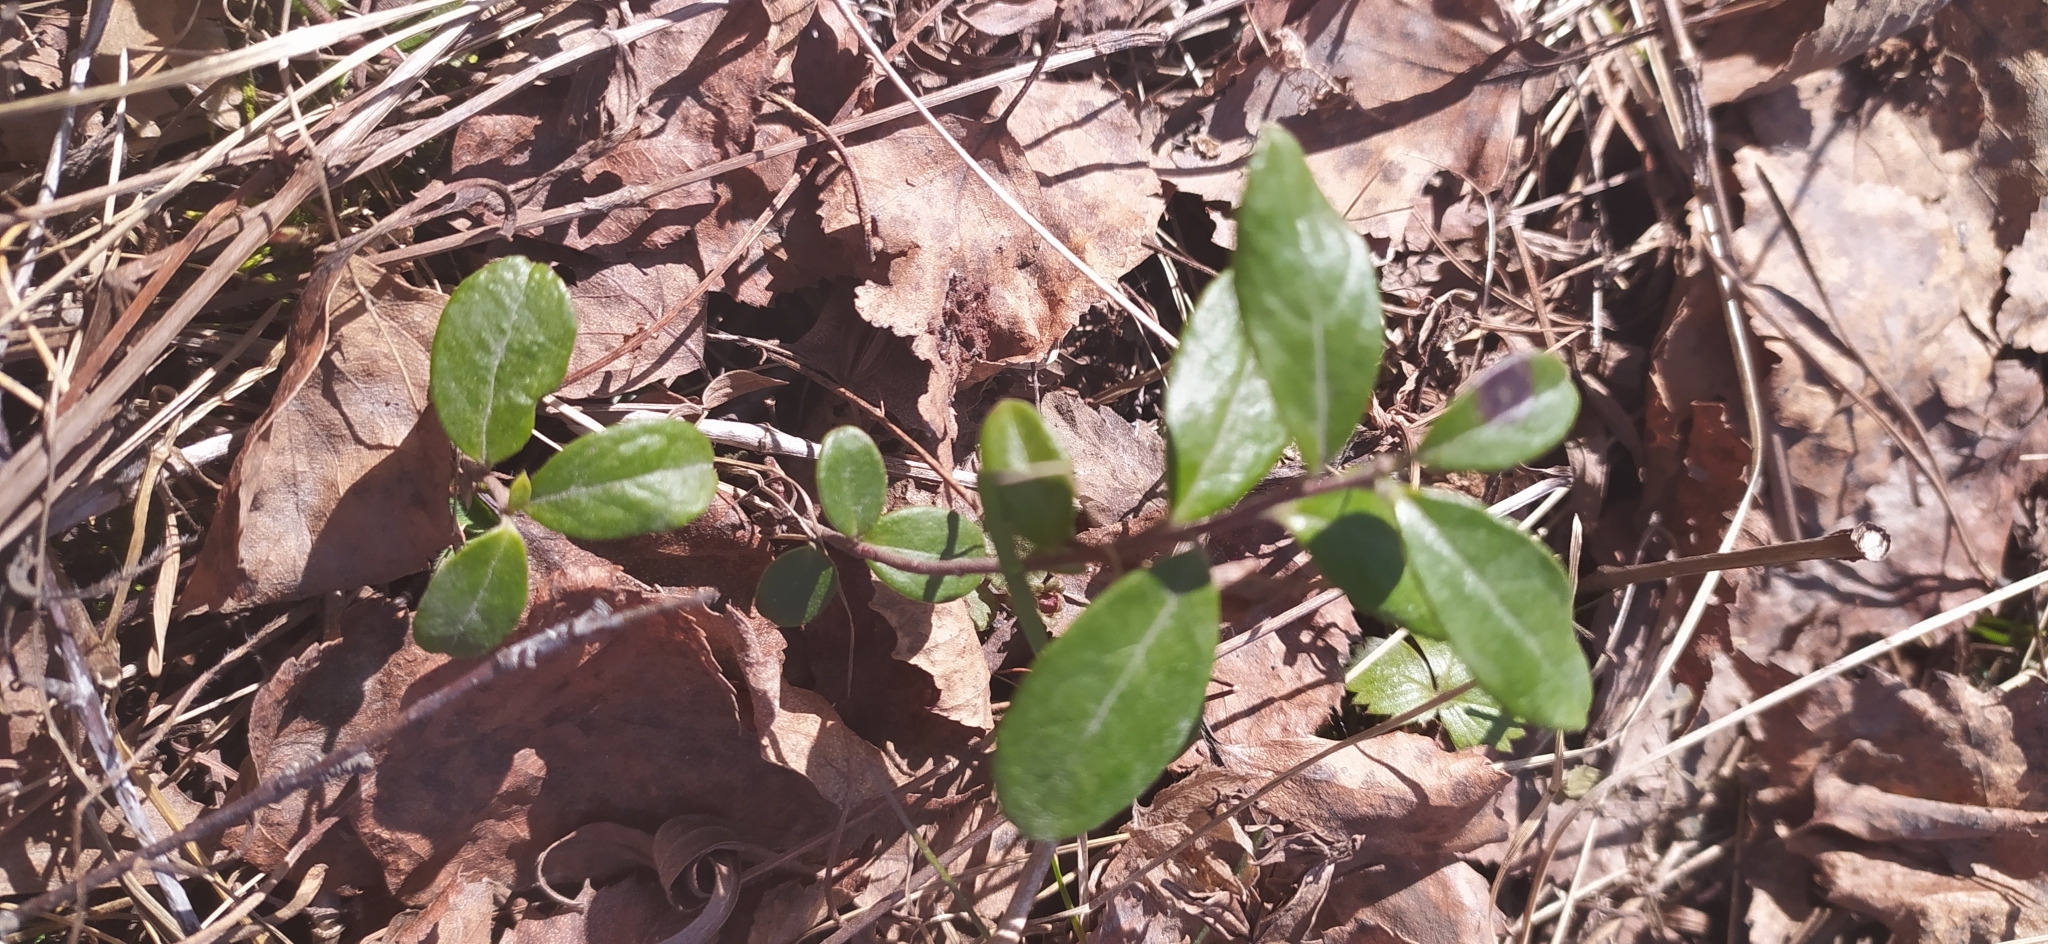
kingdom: Plantae
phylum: Tracheophyta
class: Magnoliopsida
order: Ericales
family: Ericaceae
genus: Vaccinium
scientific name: Vaccinium vitis-idaea
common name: Cowberry
